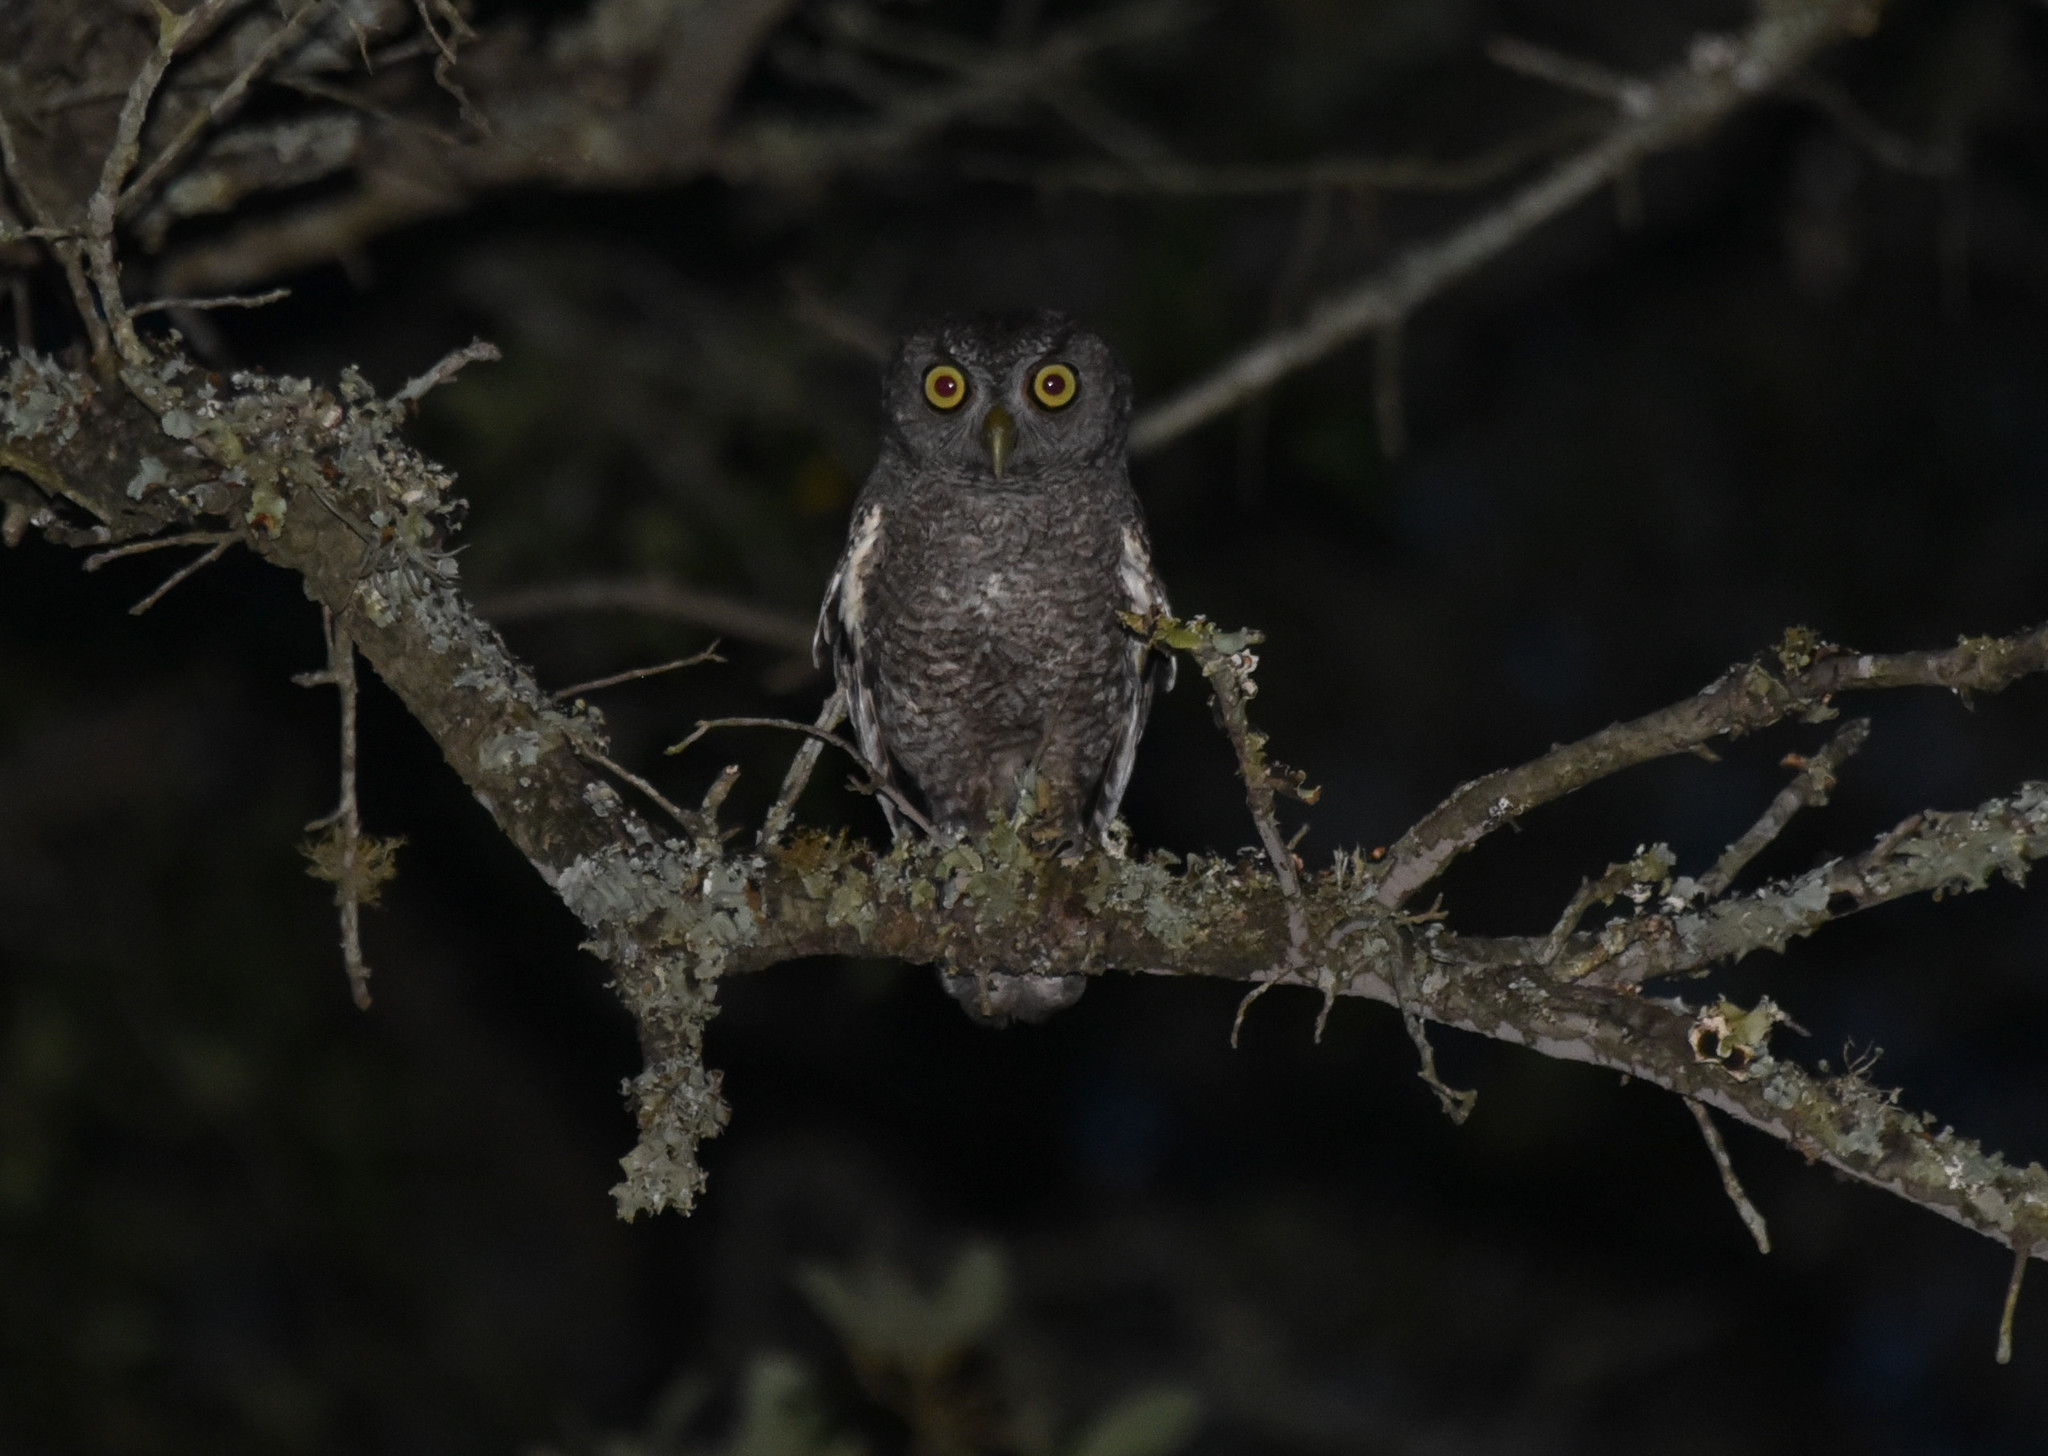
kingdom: Animalia
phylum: Chordata
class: Aves
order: Strigiformes
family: Strigidae
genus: Megascops
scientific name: Megascops asio
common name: Eastern screech-owl
